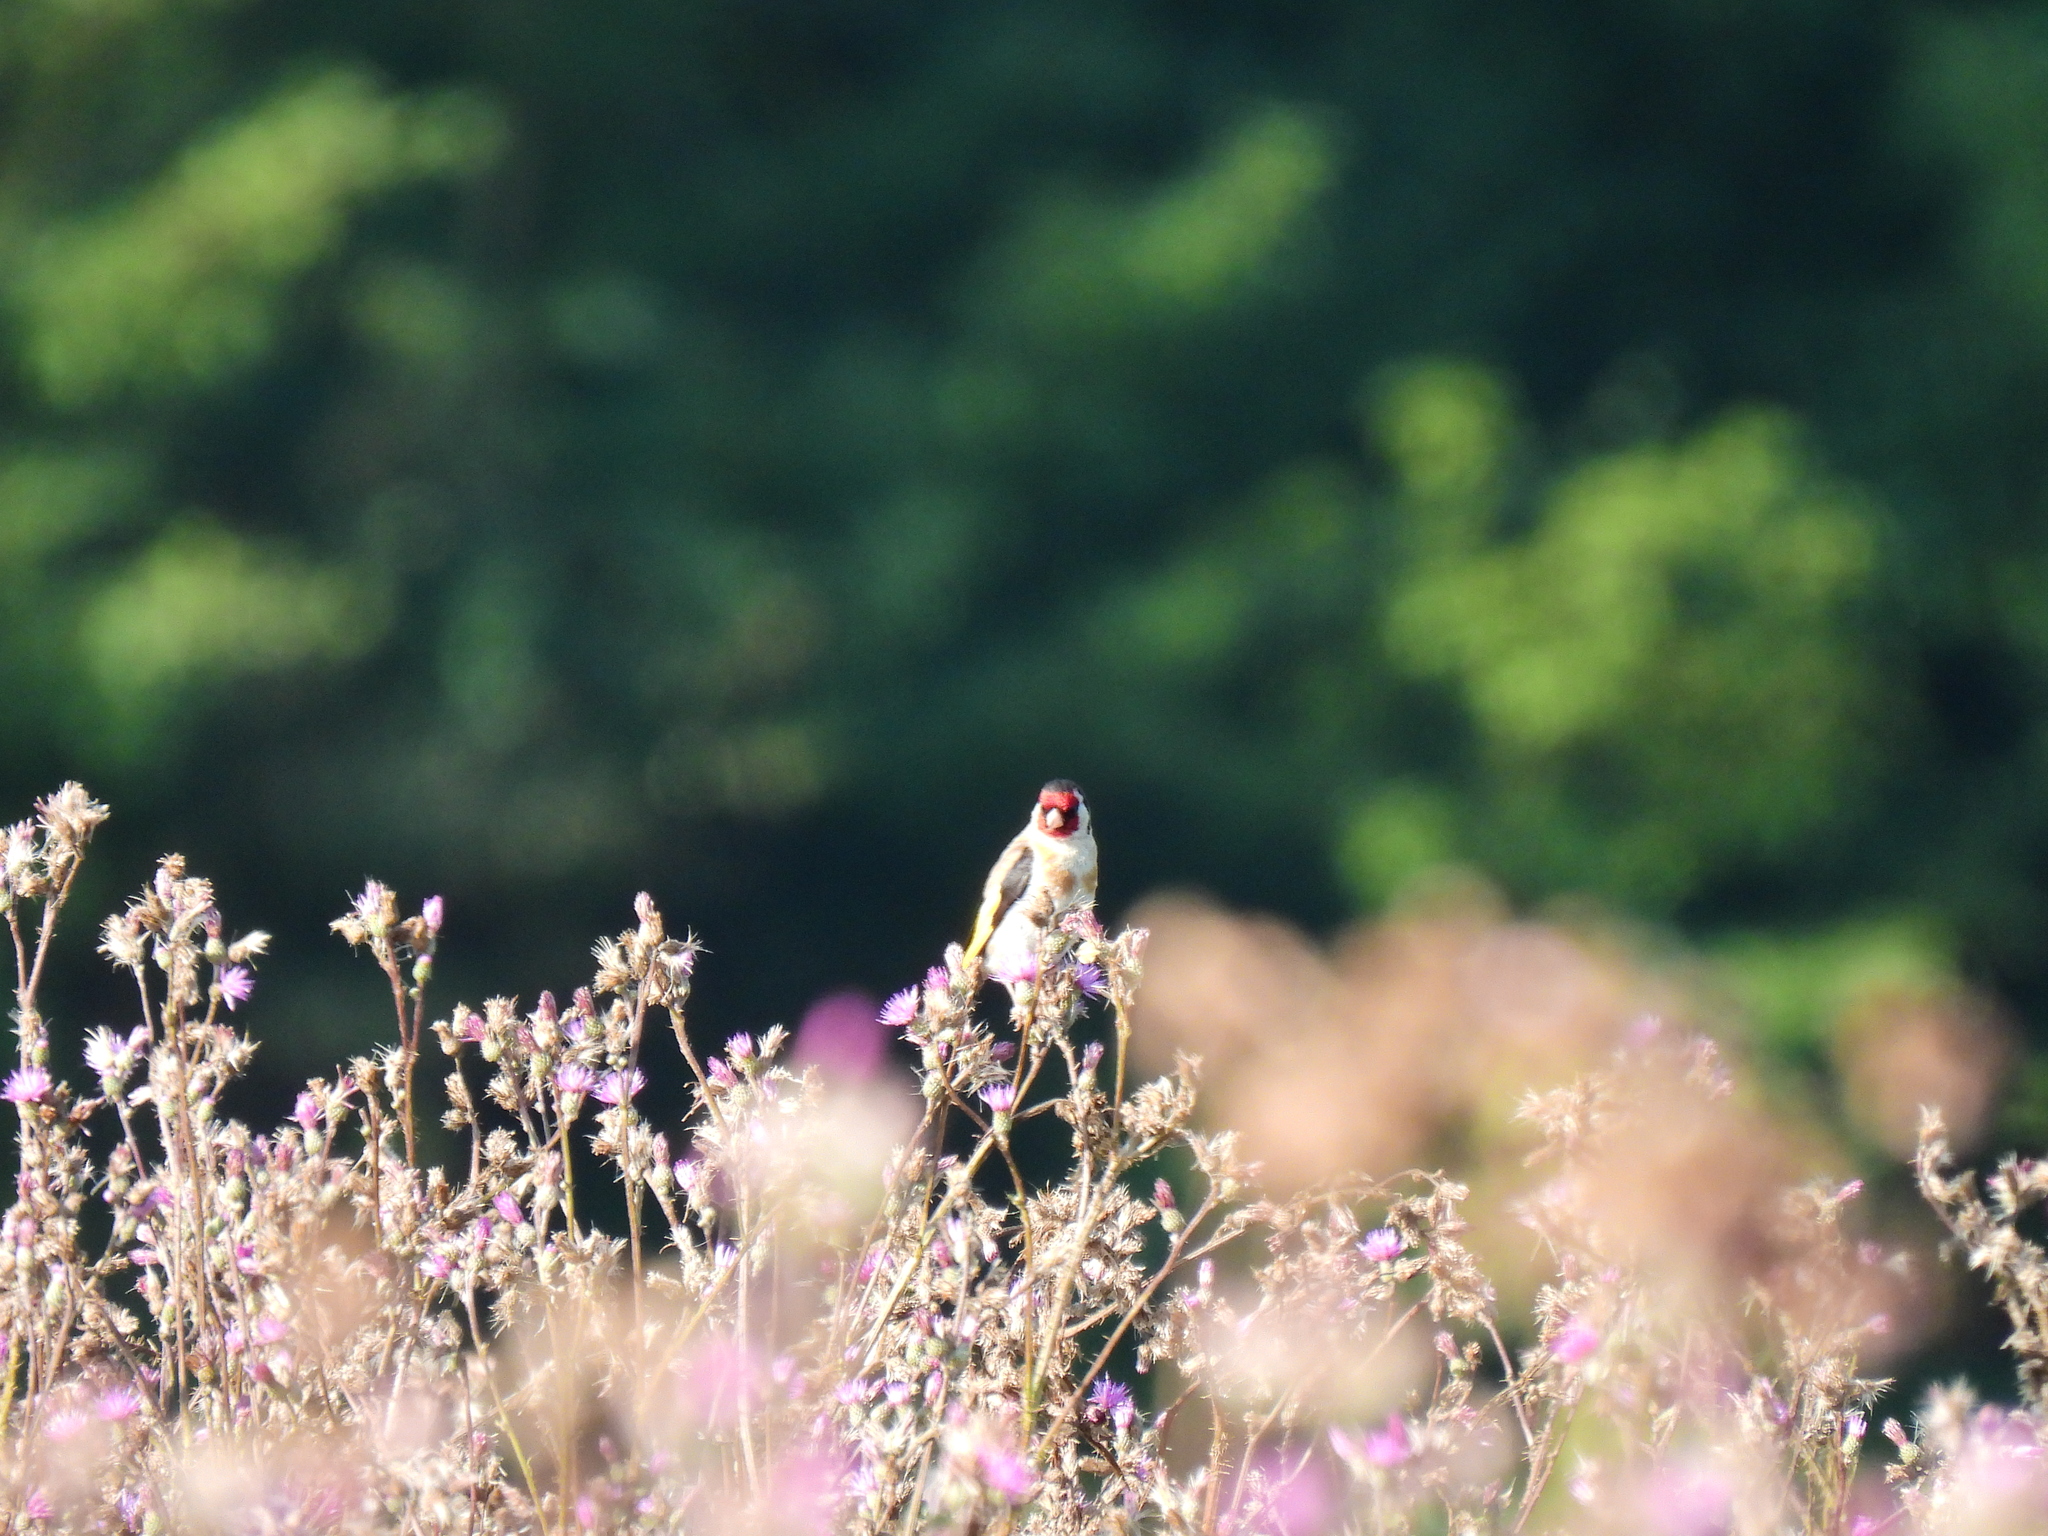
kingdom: Animalia
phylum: Chordata
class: Aves
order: Passeriformes
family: Fringillidae
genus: Carduelis
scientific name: Carduelis carduelis
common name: European goldfinch
